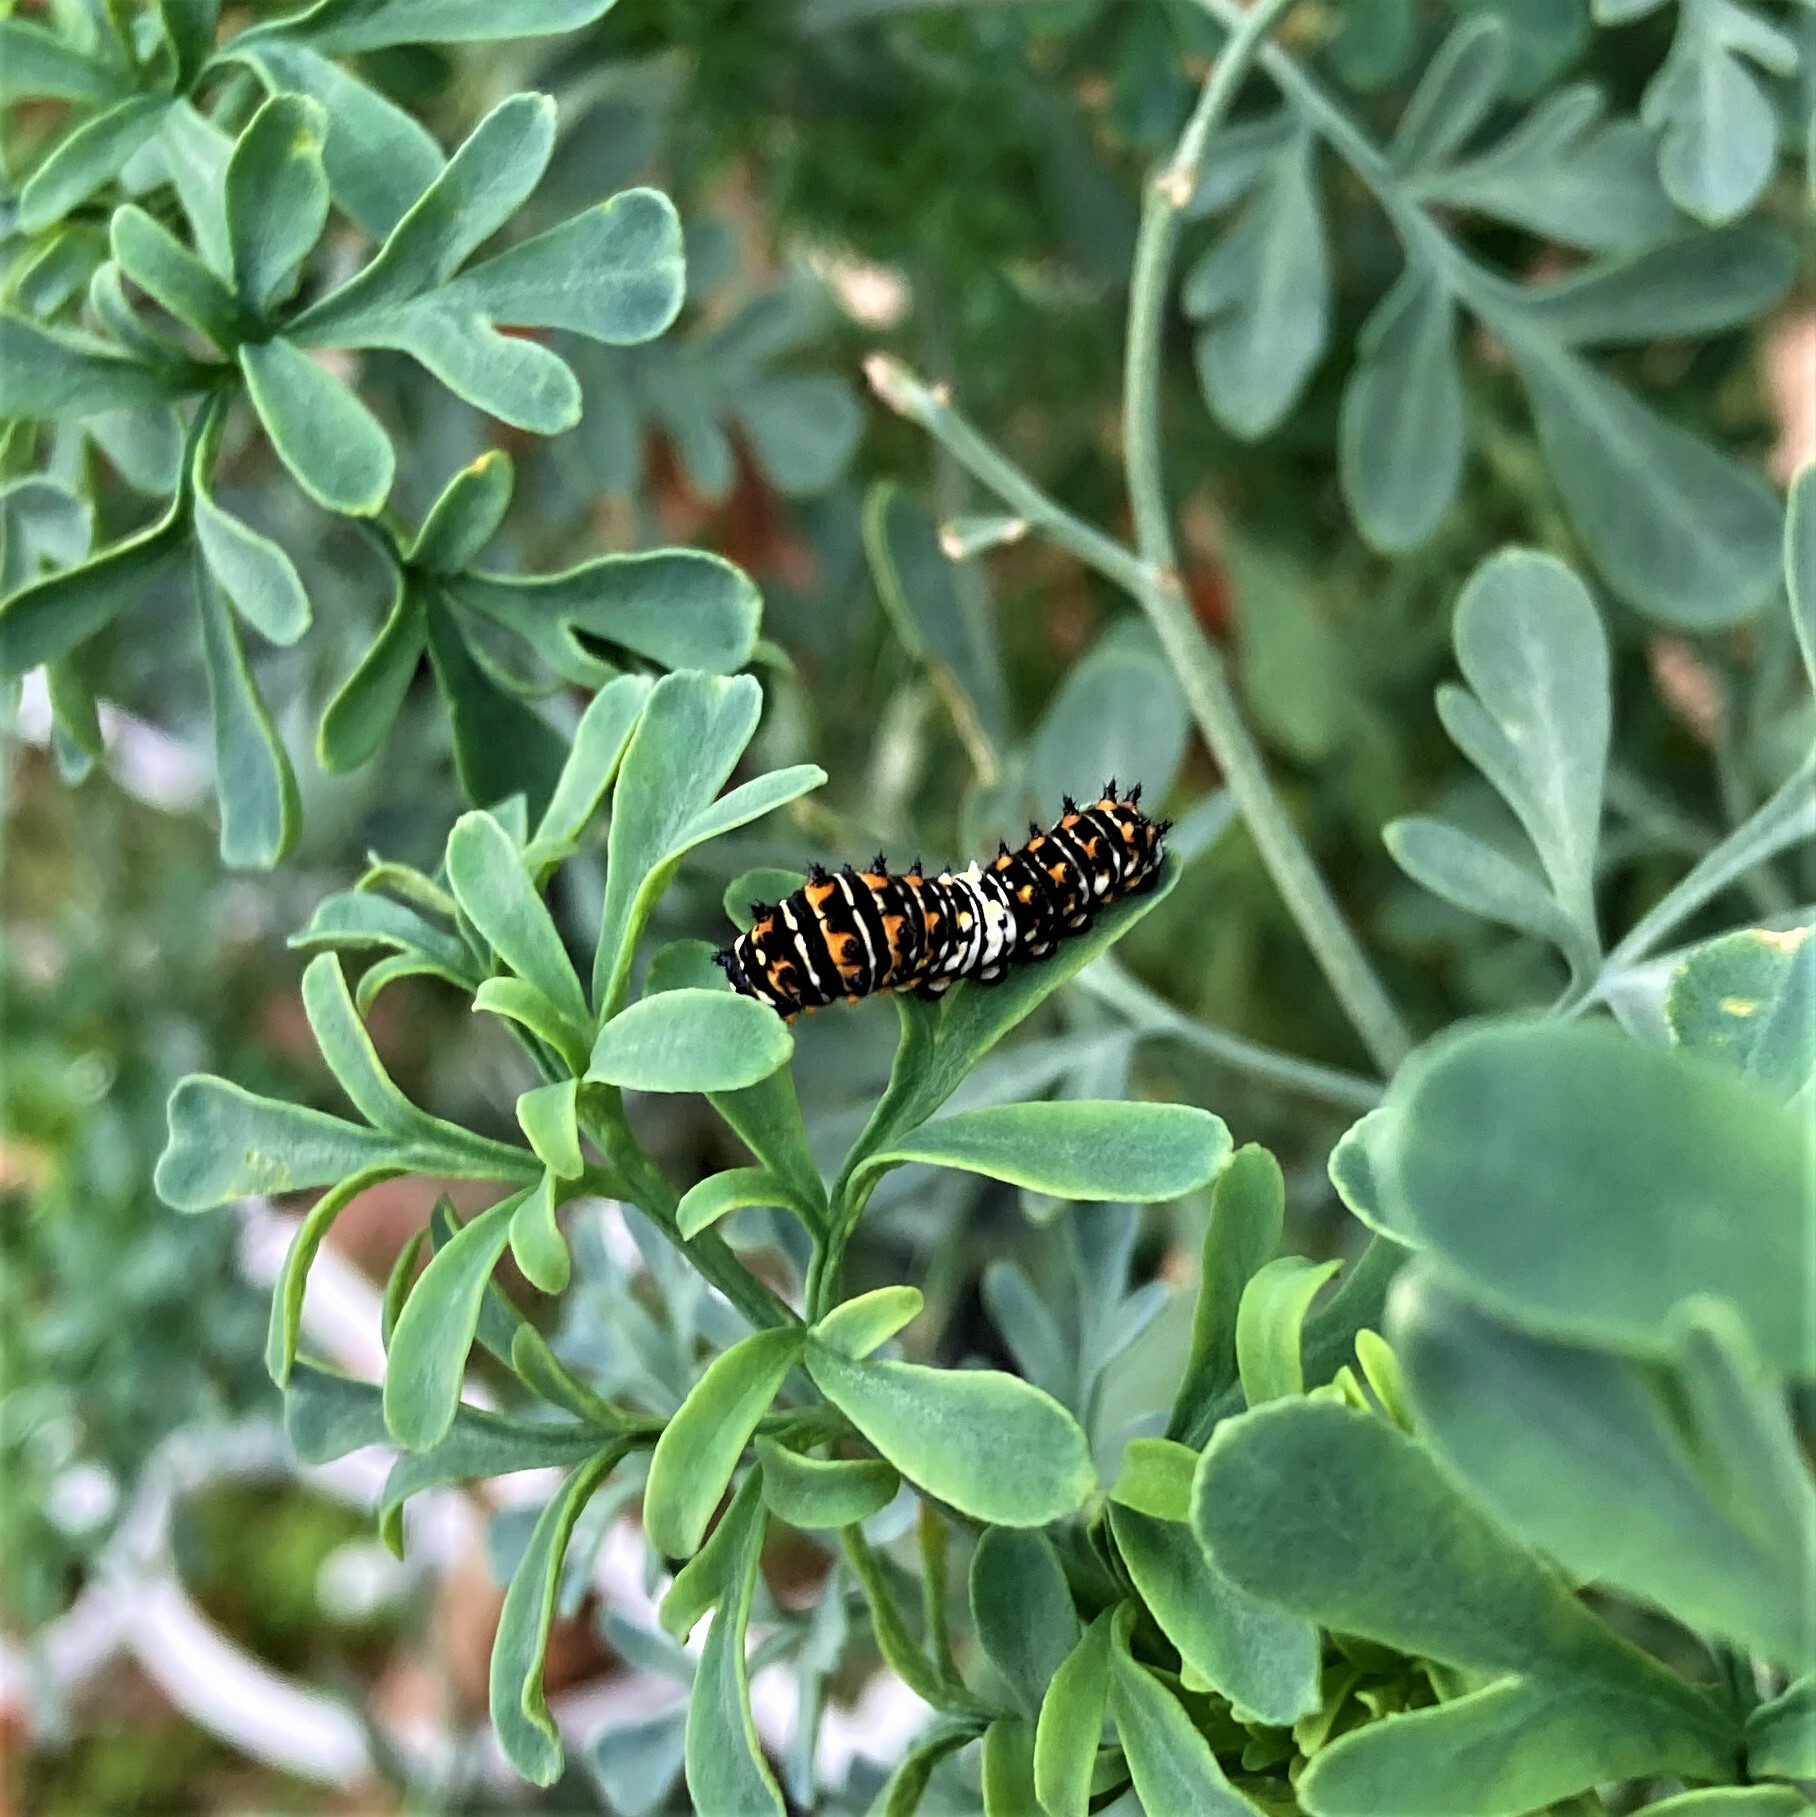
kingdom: Animalia
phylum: Arthropoda
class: Insecta
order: Lepidoptera
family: Papilionidae
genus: Papilio
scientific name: Papilio polyxenes
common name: Black swallowtail
